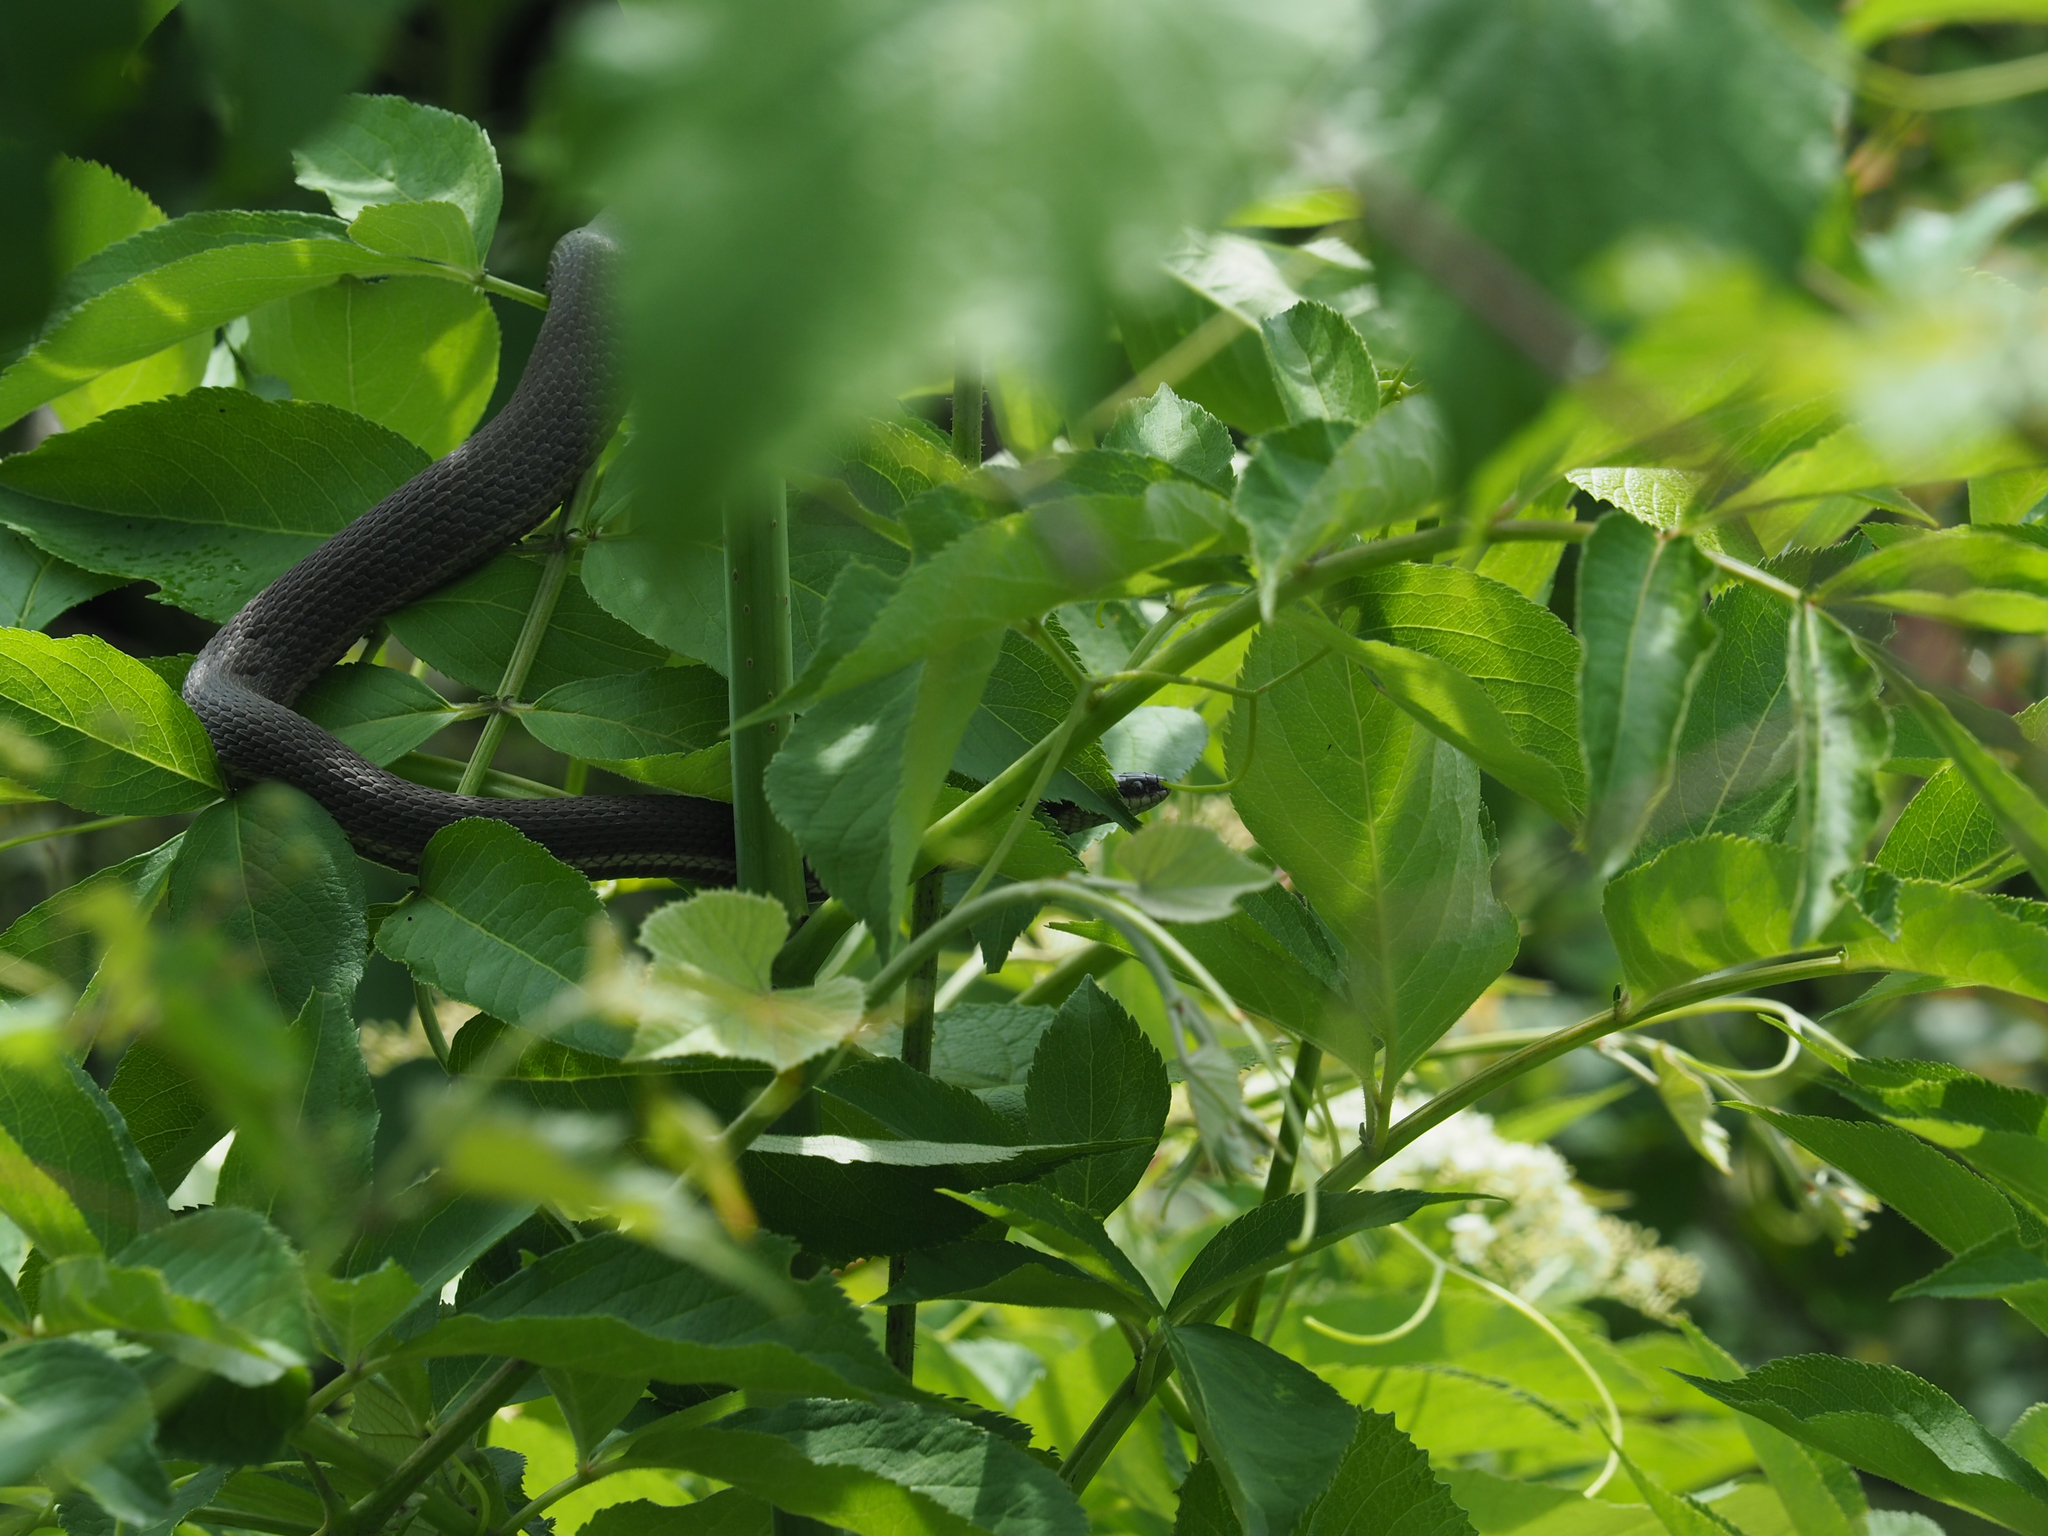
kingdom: Animalia
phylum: Chordata
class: Squamata
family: Colubridae
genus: Regina
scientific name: Regina septemvittata
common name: Queen snake
